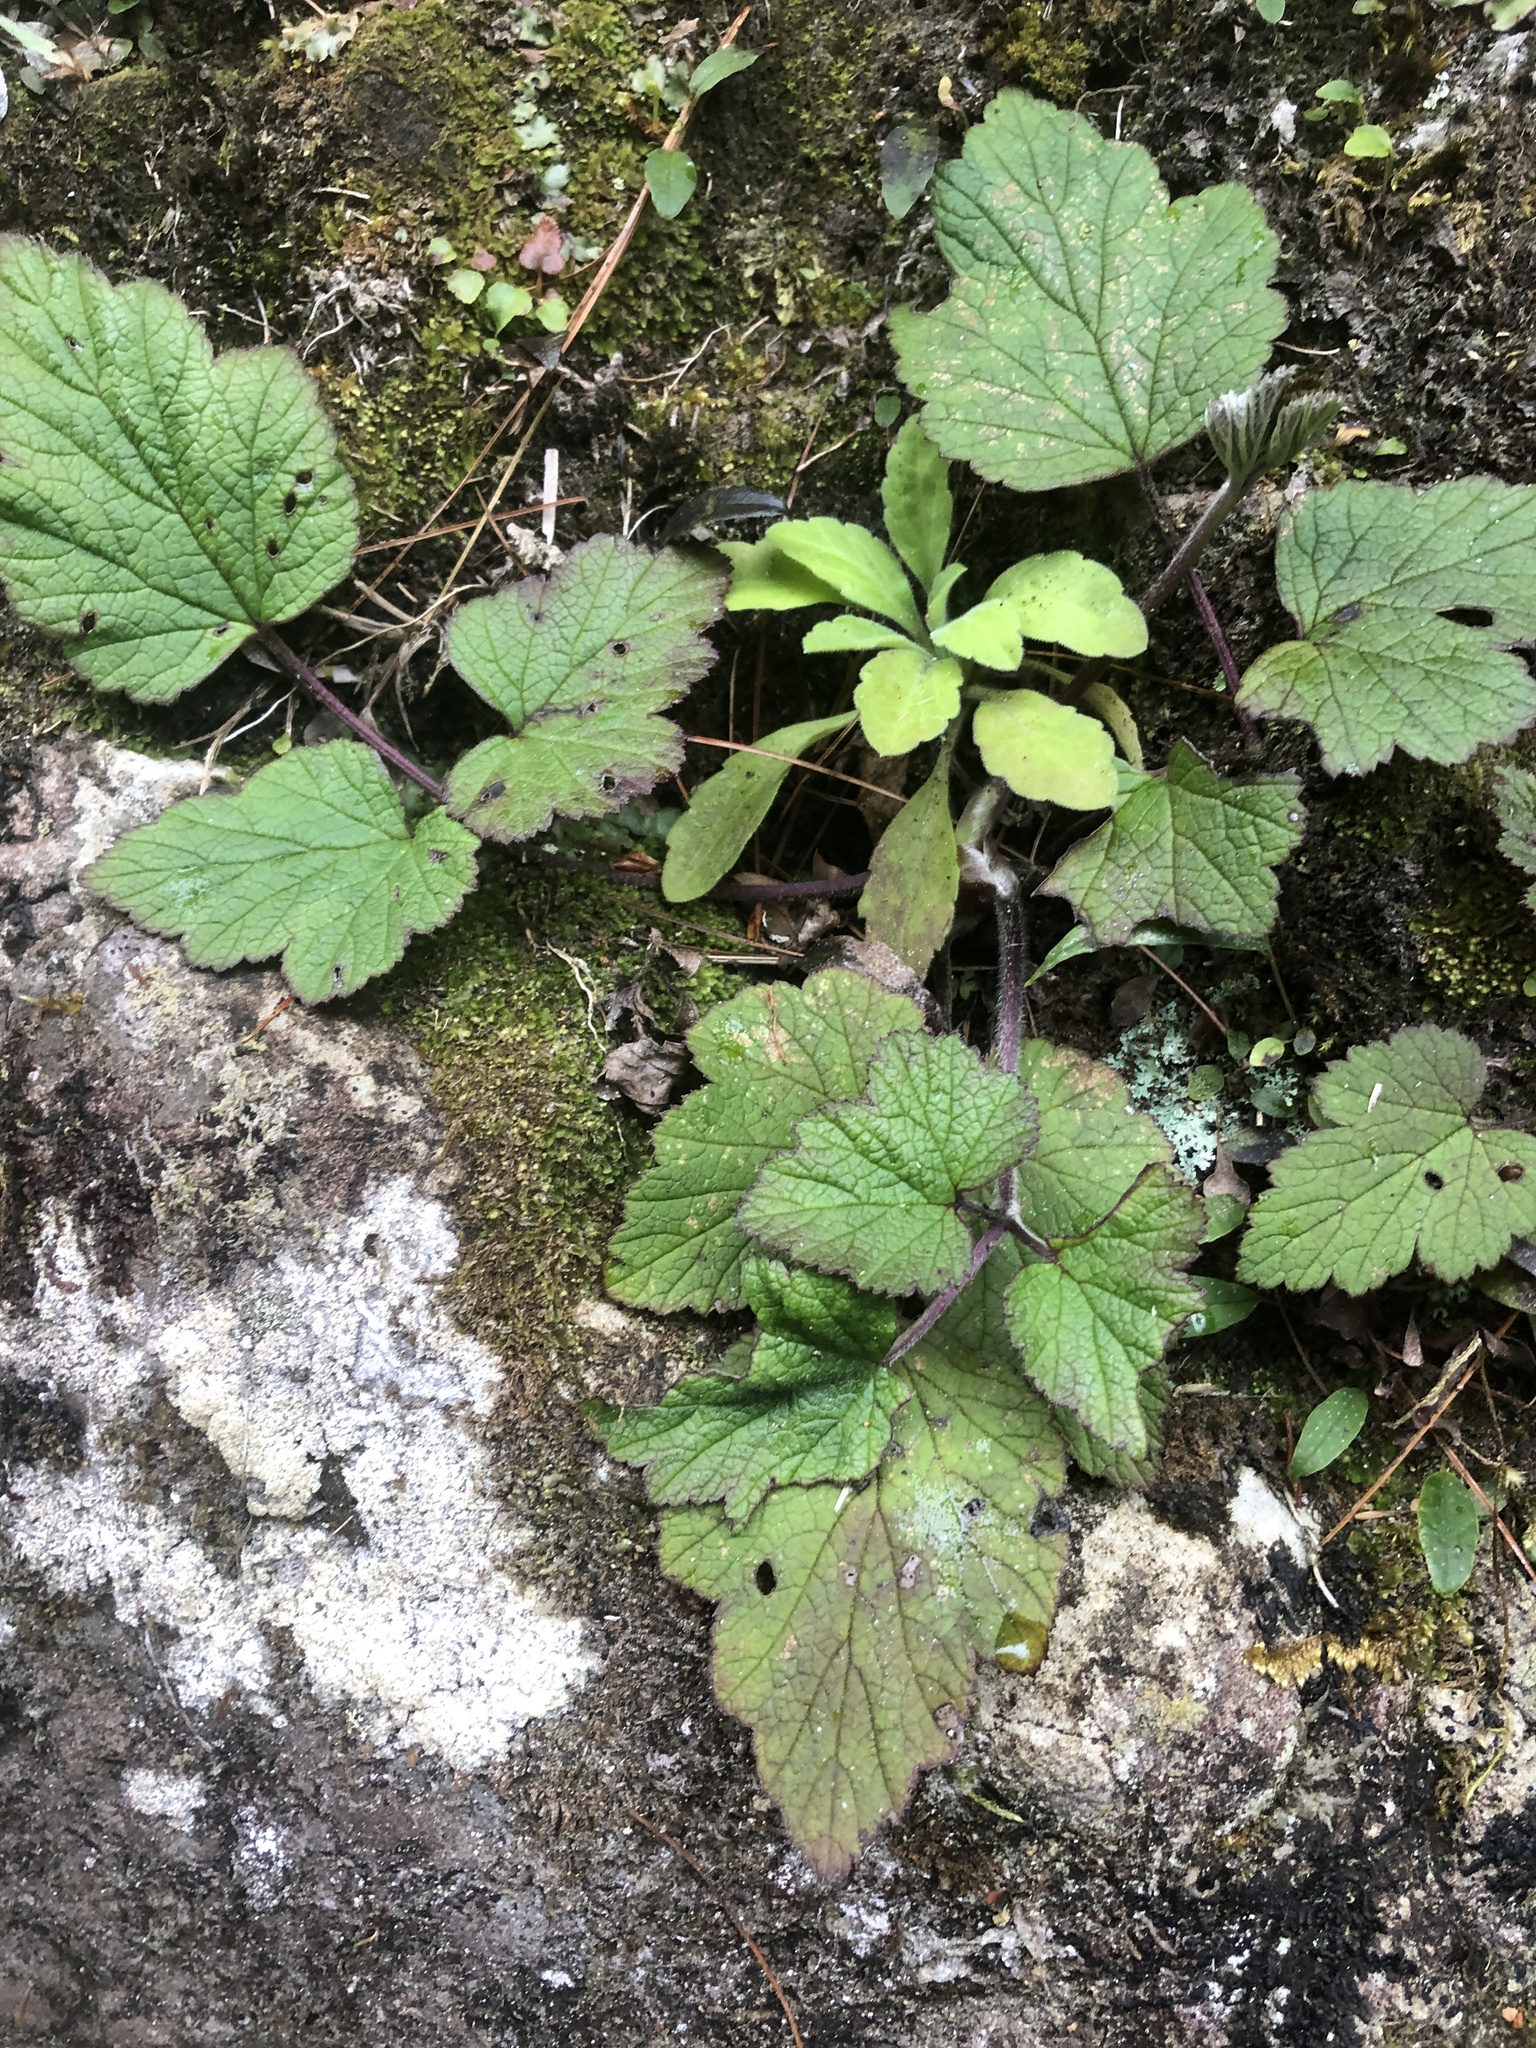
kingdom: Plantae
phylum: Tracheophyta
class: Magnoliopsida
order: Ranunculales
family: Ranunculaceae
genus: Eriocapitella
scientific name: Eriocapitella vitifolia
